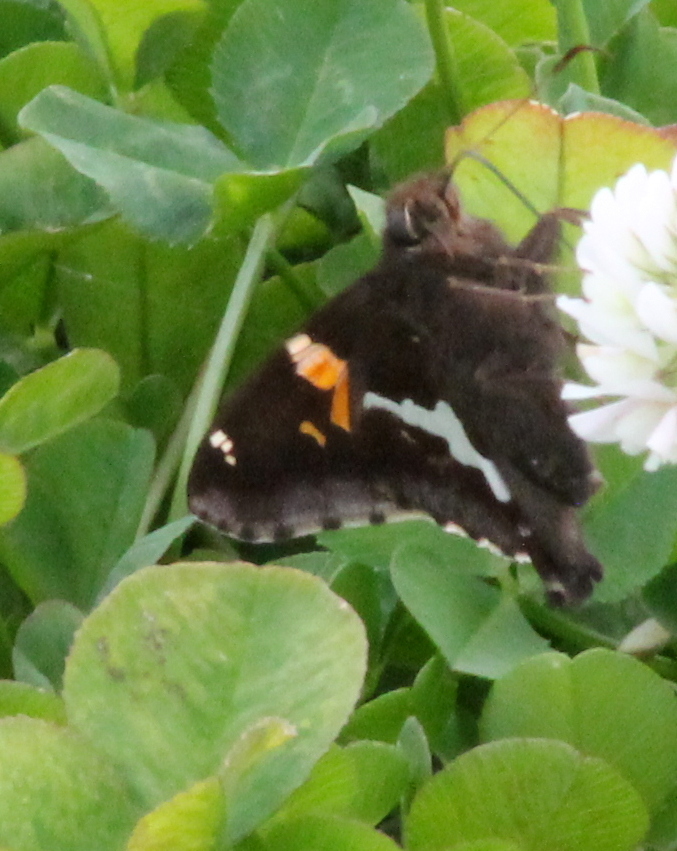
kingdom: Animalia
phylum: Arthropoda
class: Insecta
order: Lepidoptera
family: Hesperiidae
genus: Epargyreus
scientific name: Epargyreus clarus
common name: Silver-spotted skipper
